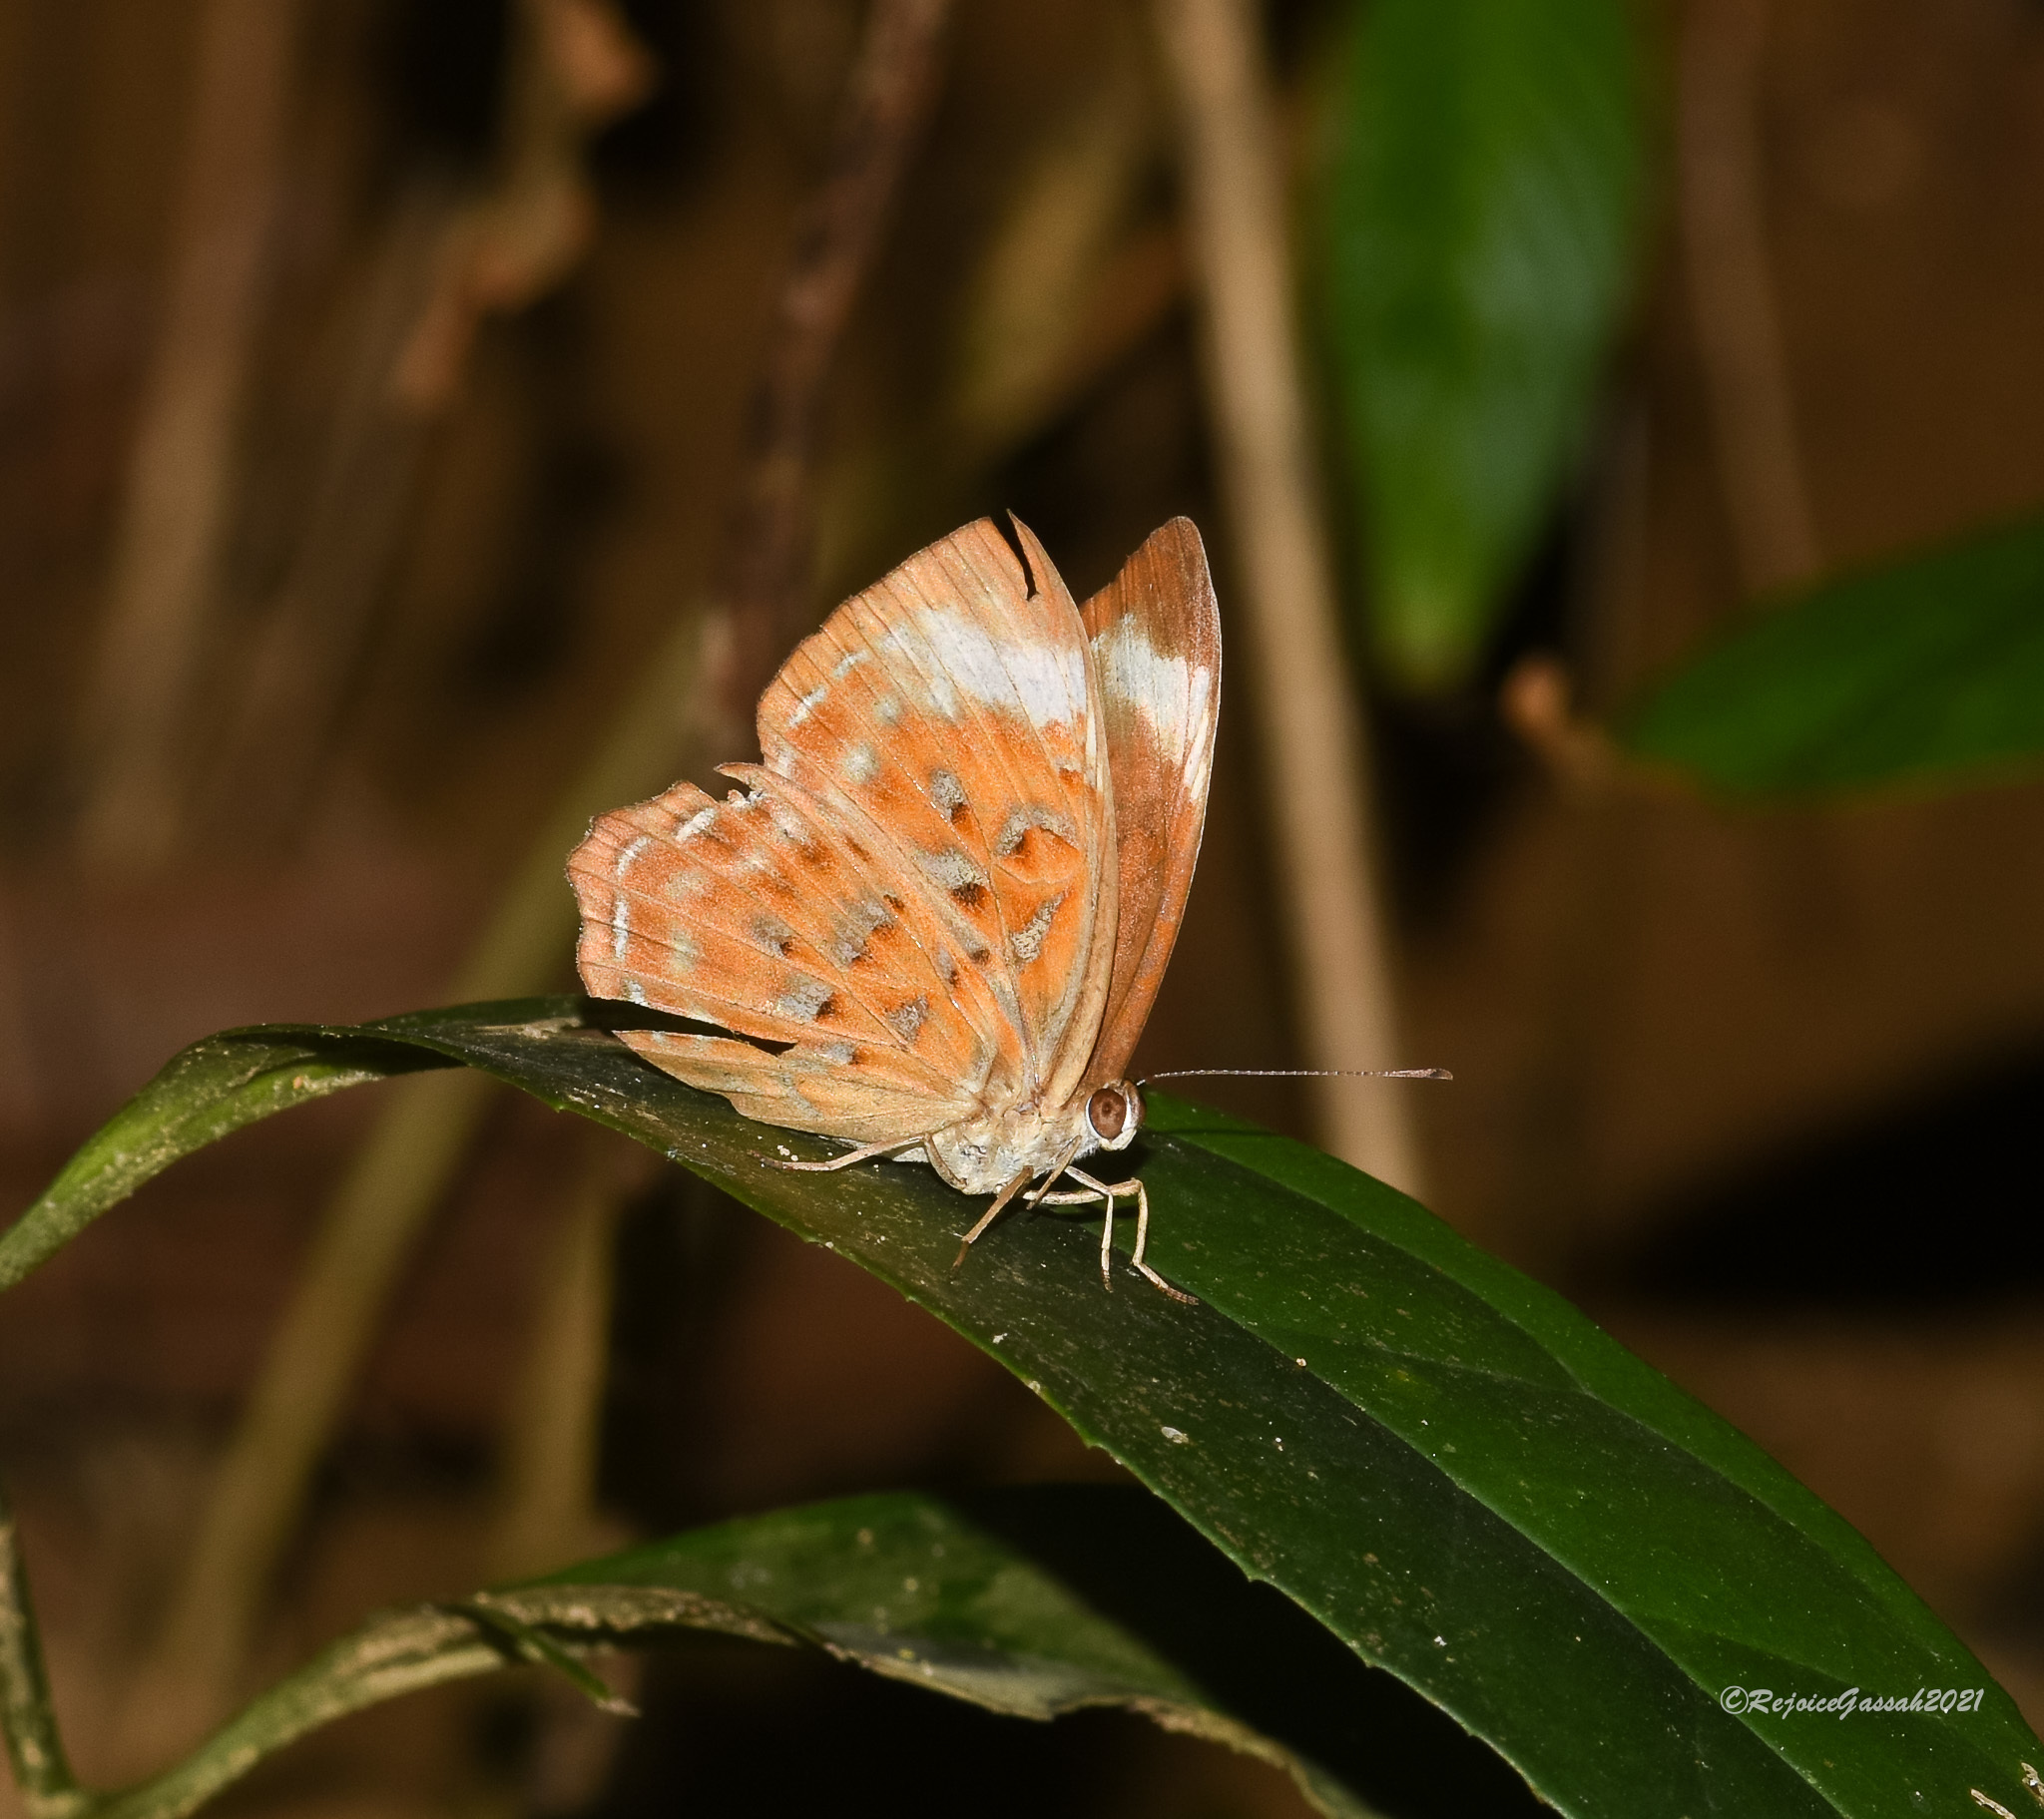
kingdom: Animalia
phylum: Arthropoda
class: Insecta
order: Lepidoptera
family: Erebidae
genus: Dysschema
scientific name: Dysschema
